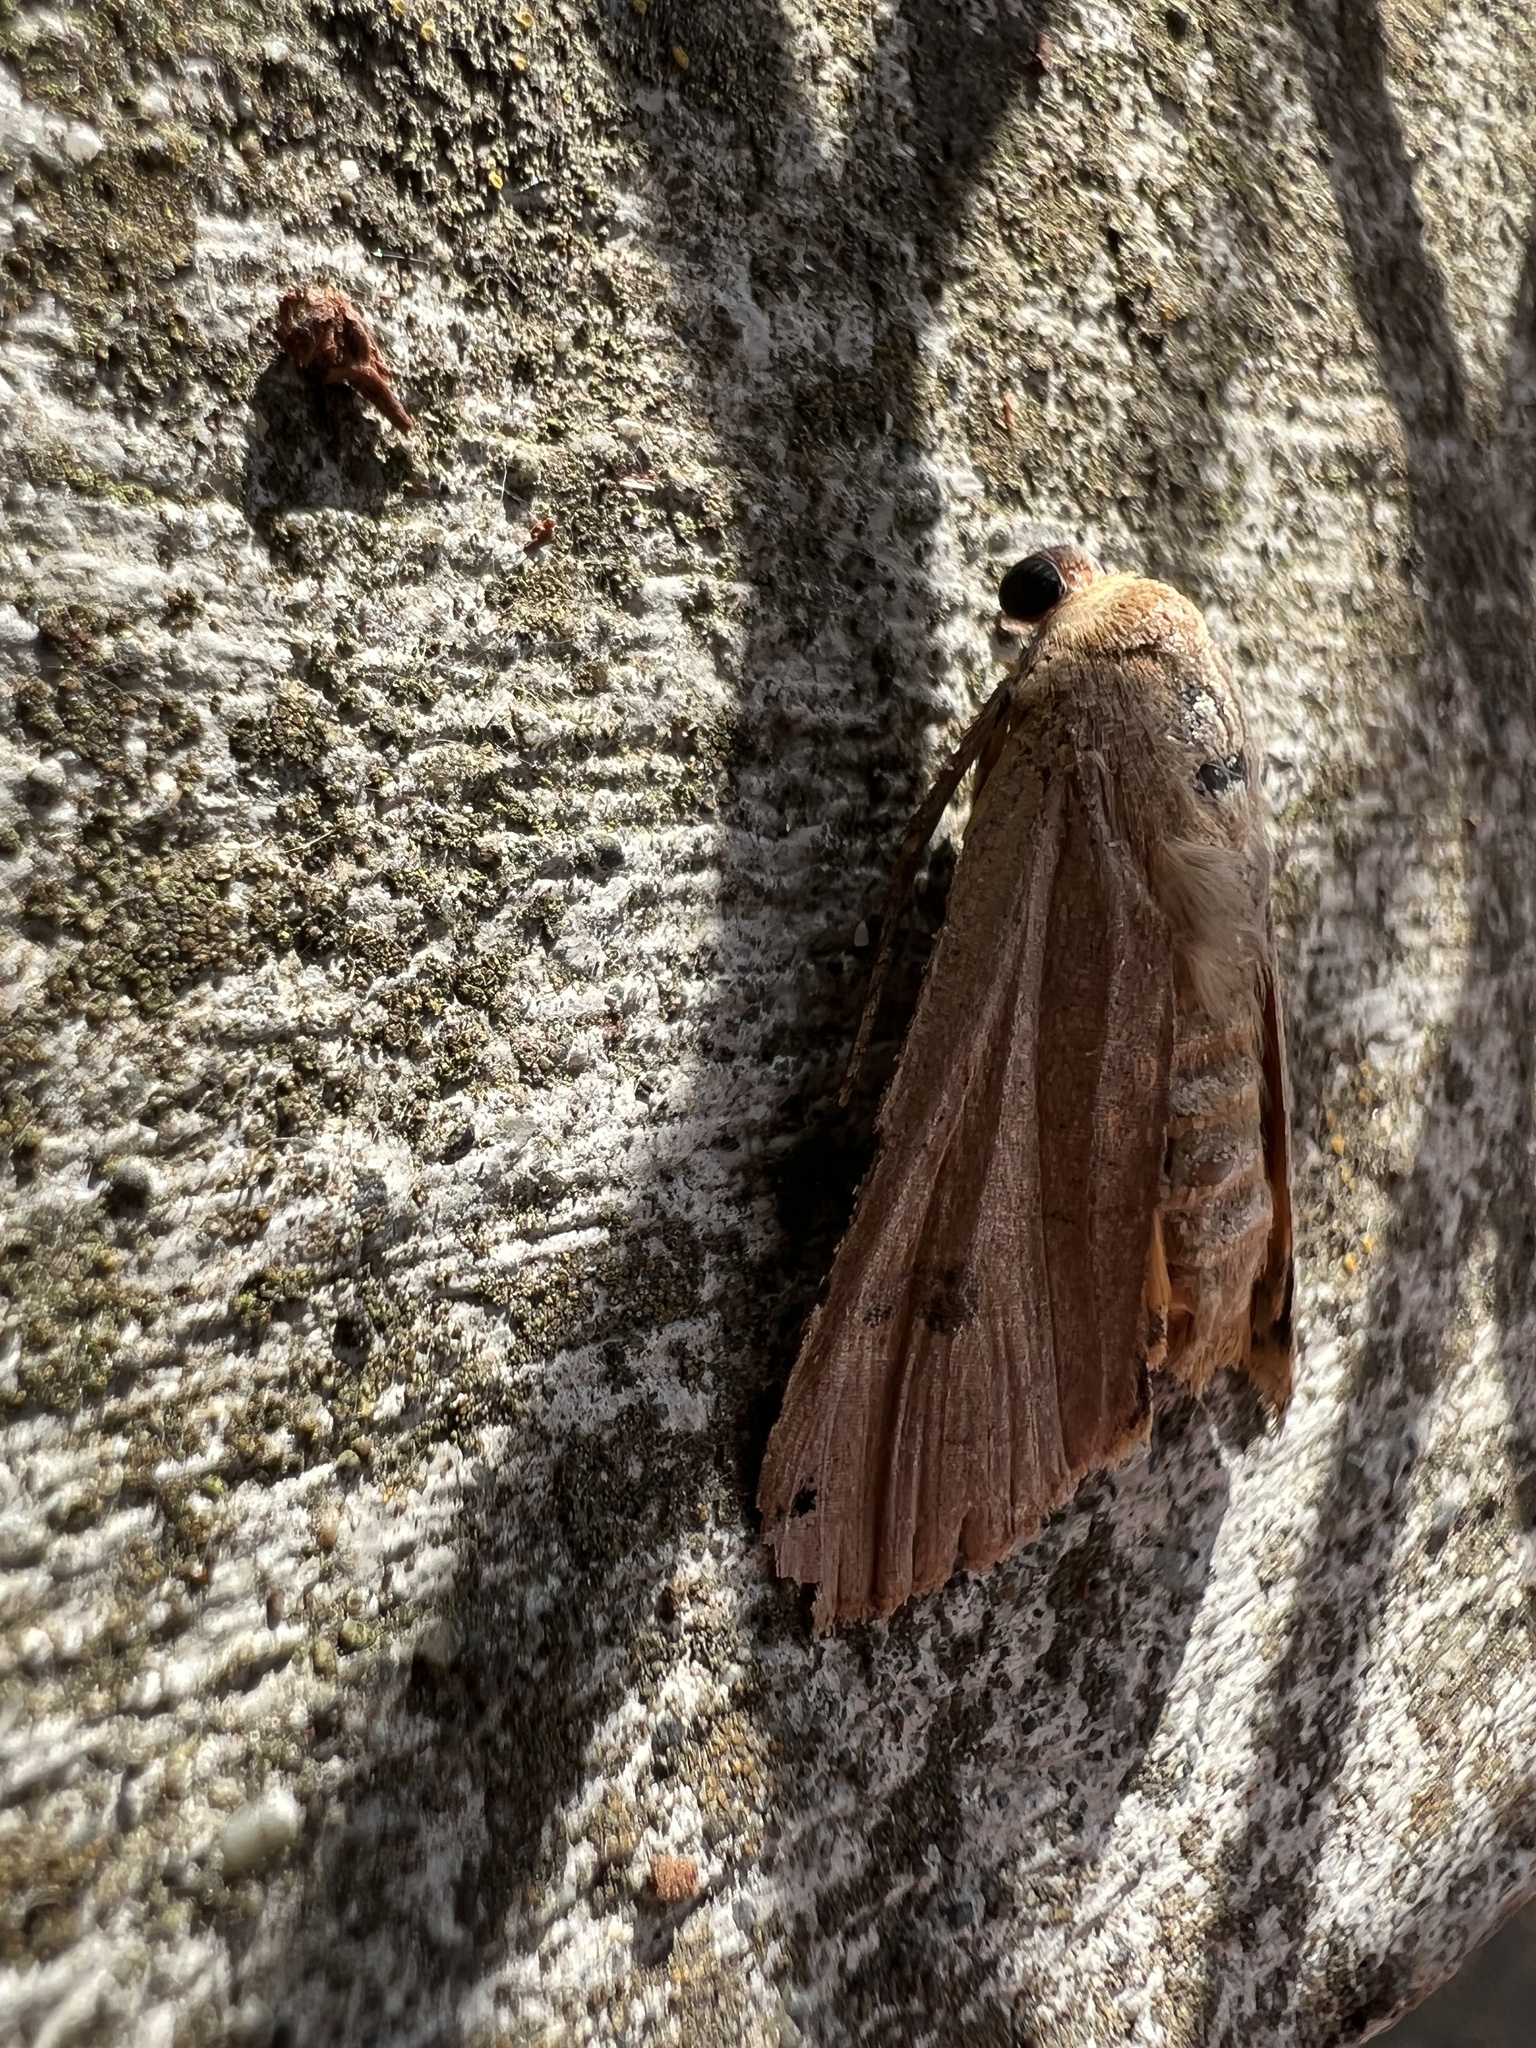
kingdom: Animalia
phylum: Arthropoda
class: Insecta
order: Lepidoptera
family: Noctuidae
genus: Noctua
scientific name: Noctua pronuba
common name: Large yellow underwing
